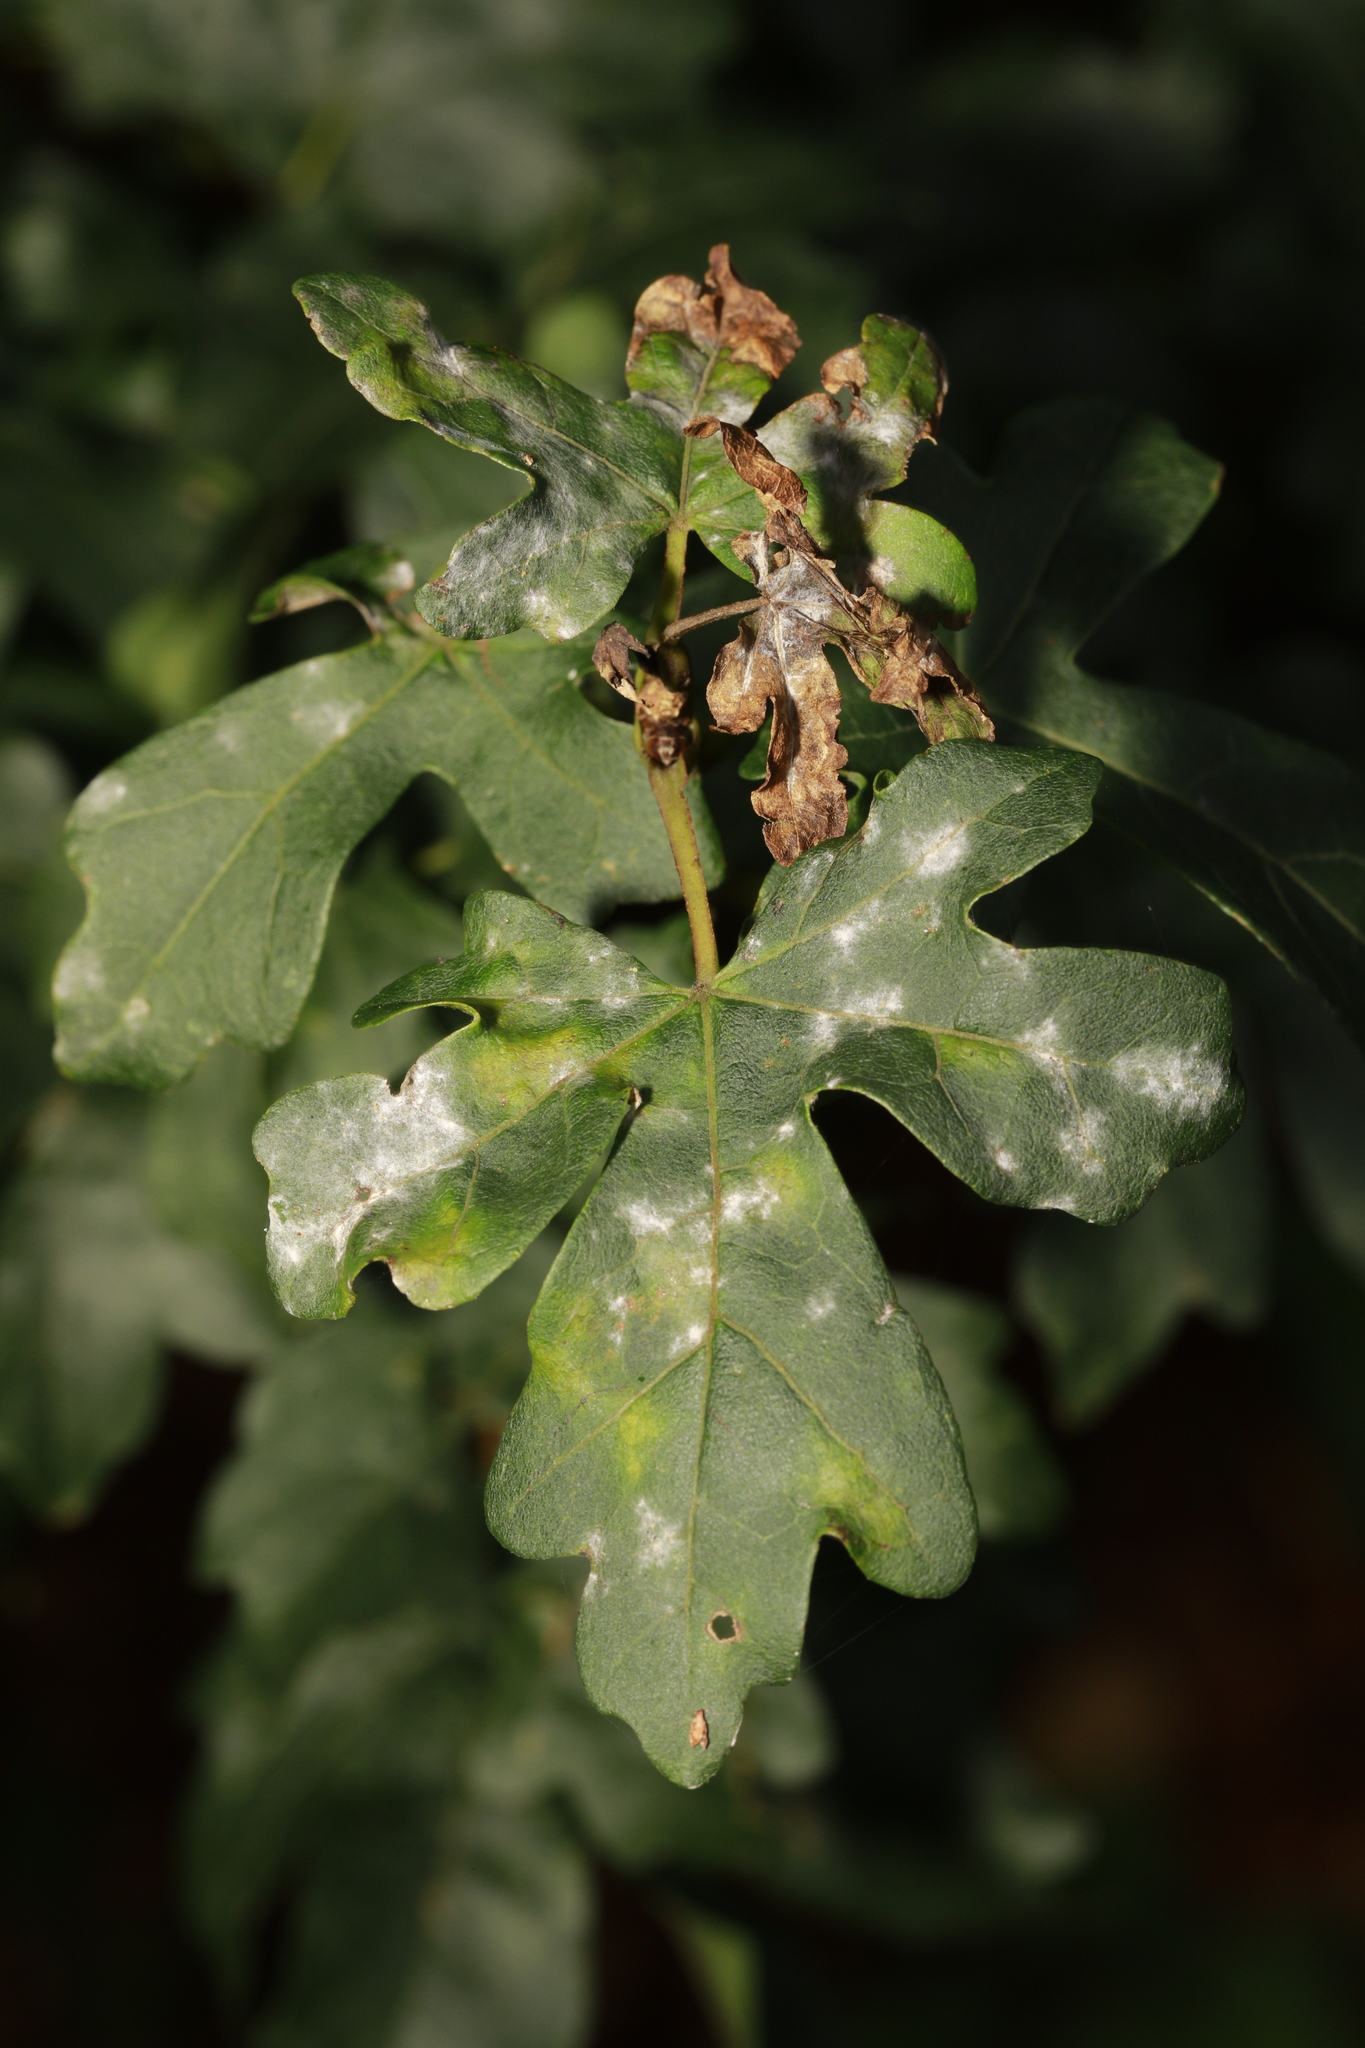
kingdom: Fungi
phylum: Ascomycota
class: Leotiomycetes
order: Helotiales
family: Erysiphaceae
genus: Sawadaea
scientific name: Sawadaea bicornis
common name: Maple mildew
